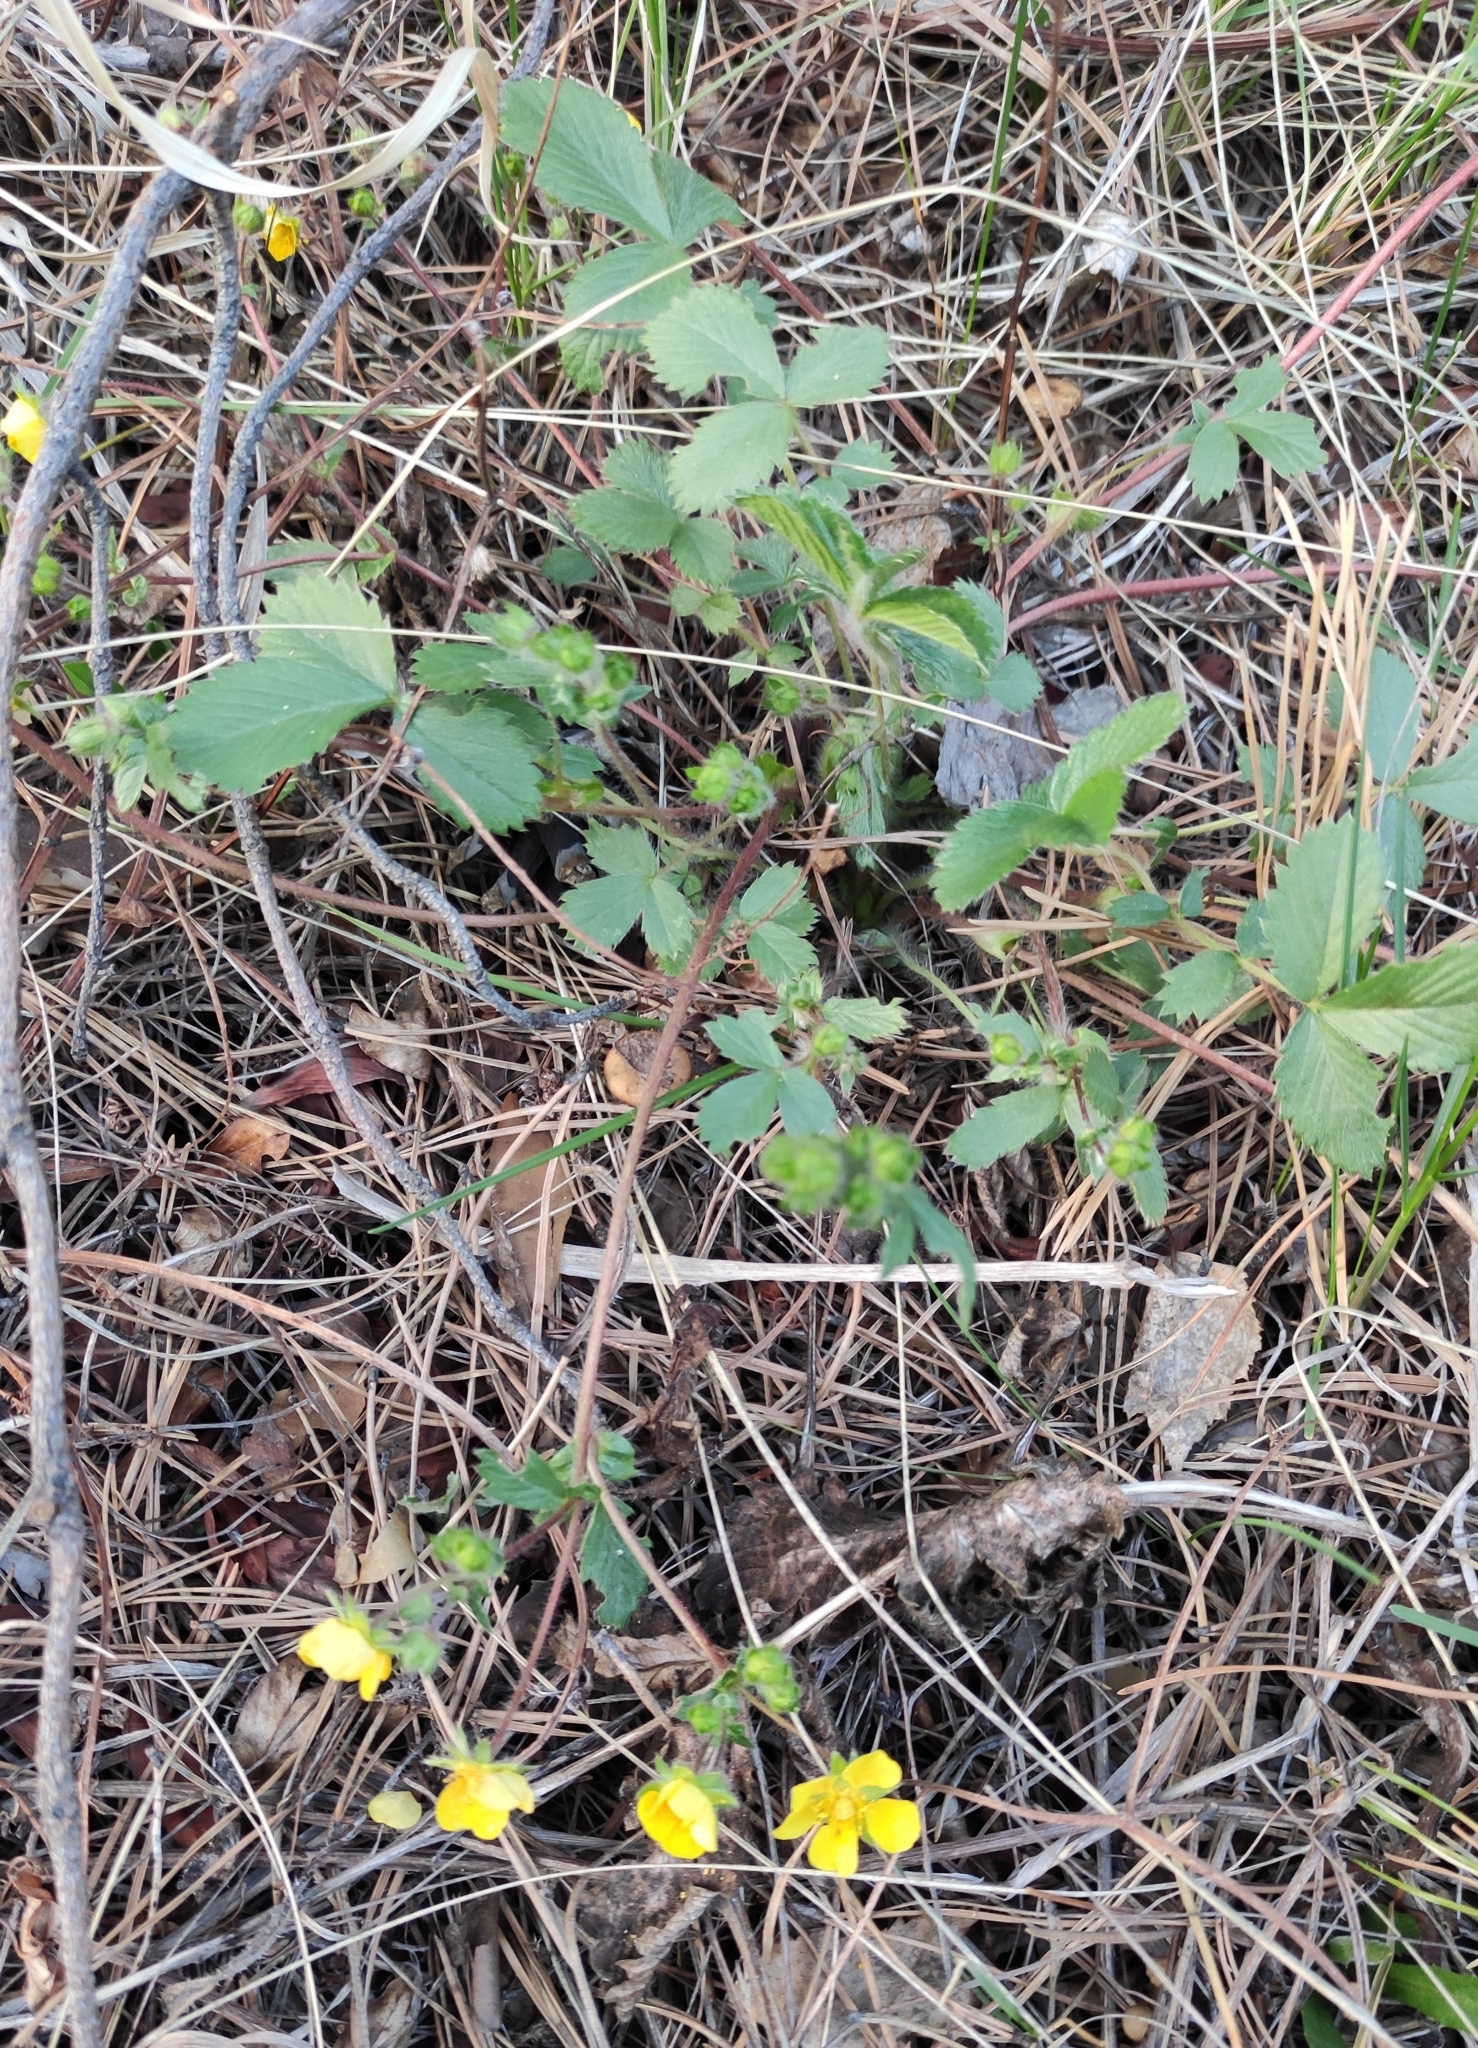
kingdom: Plantae
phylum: Tracheophyta
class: Magnoliopsida
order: Rosales
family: Rosaceae
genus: Potentilla
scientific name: Potentilla fragarioides
